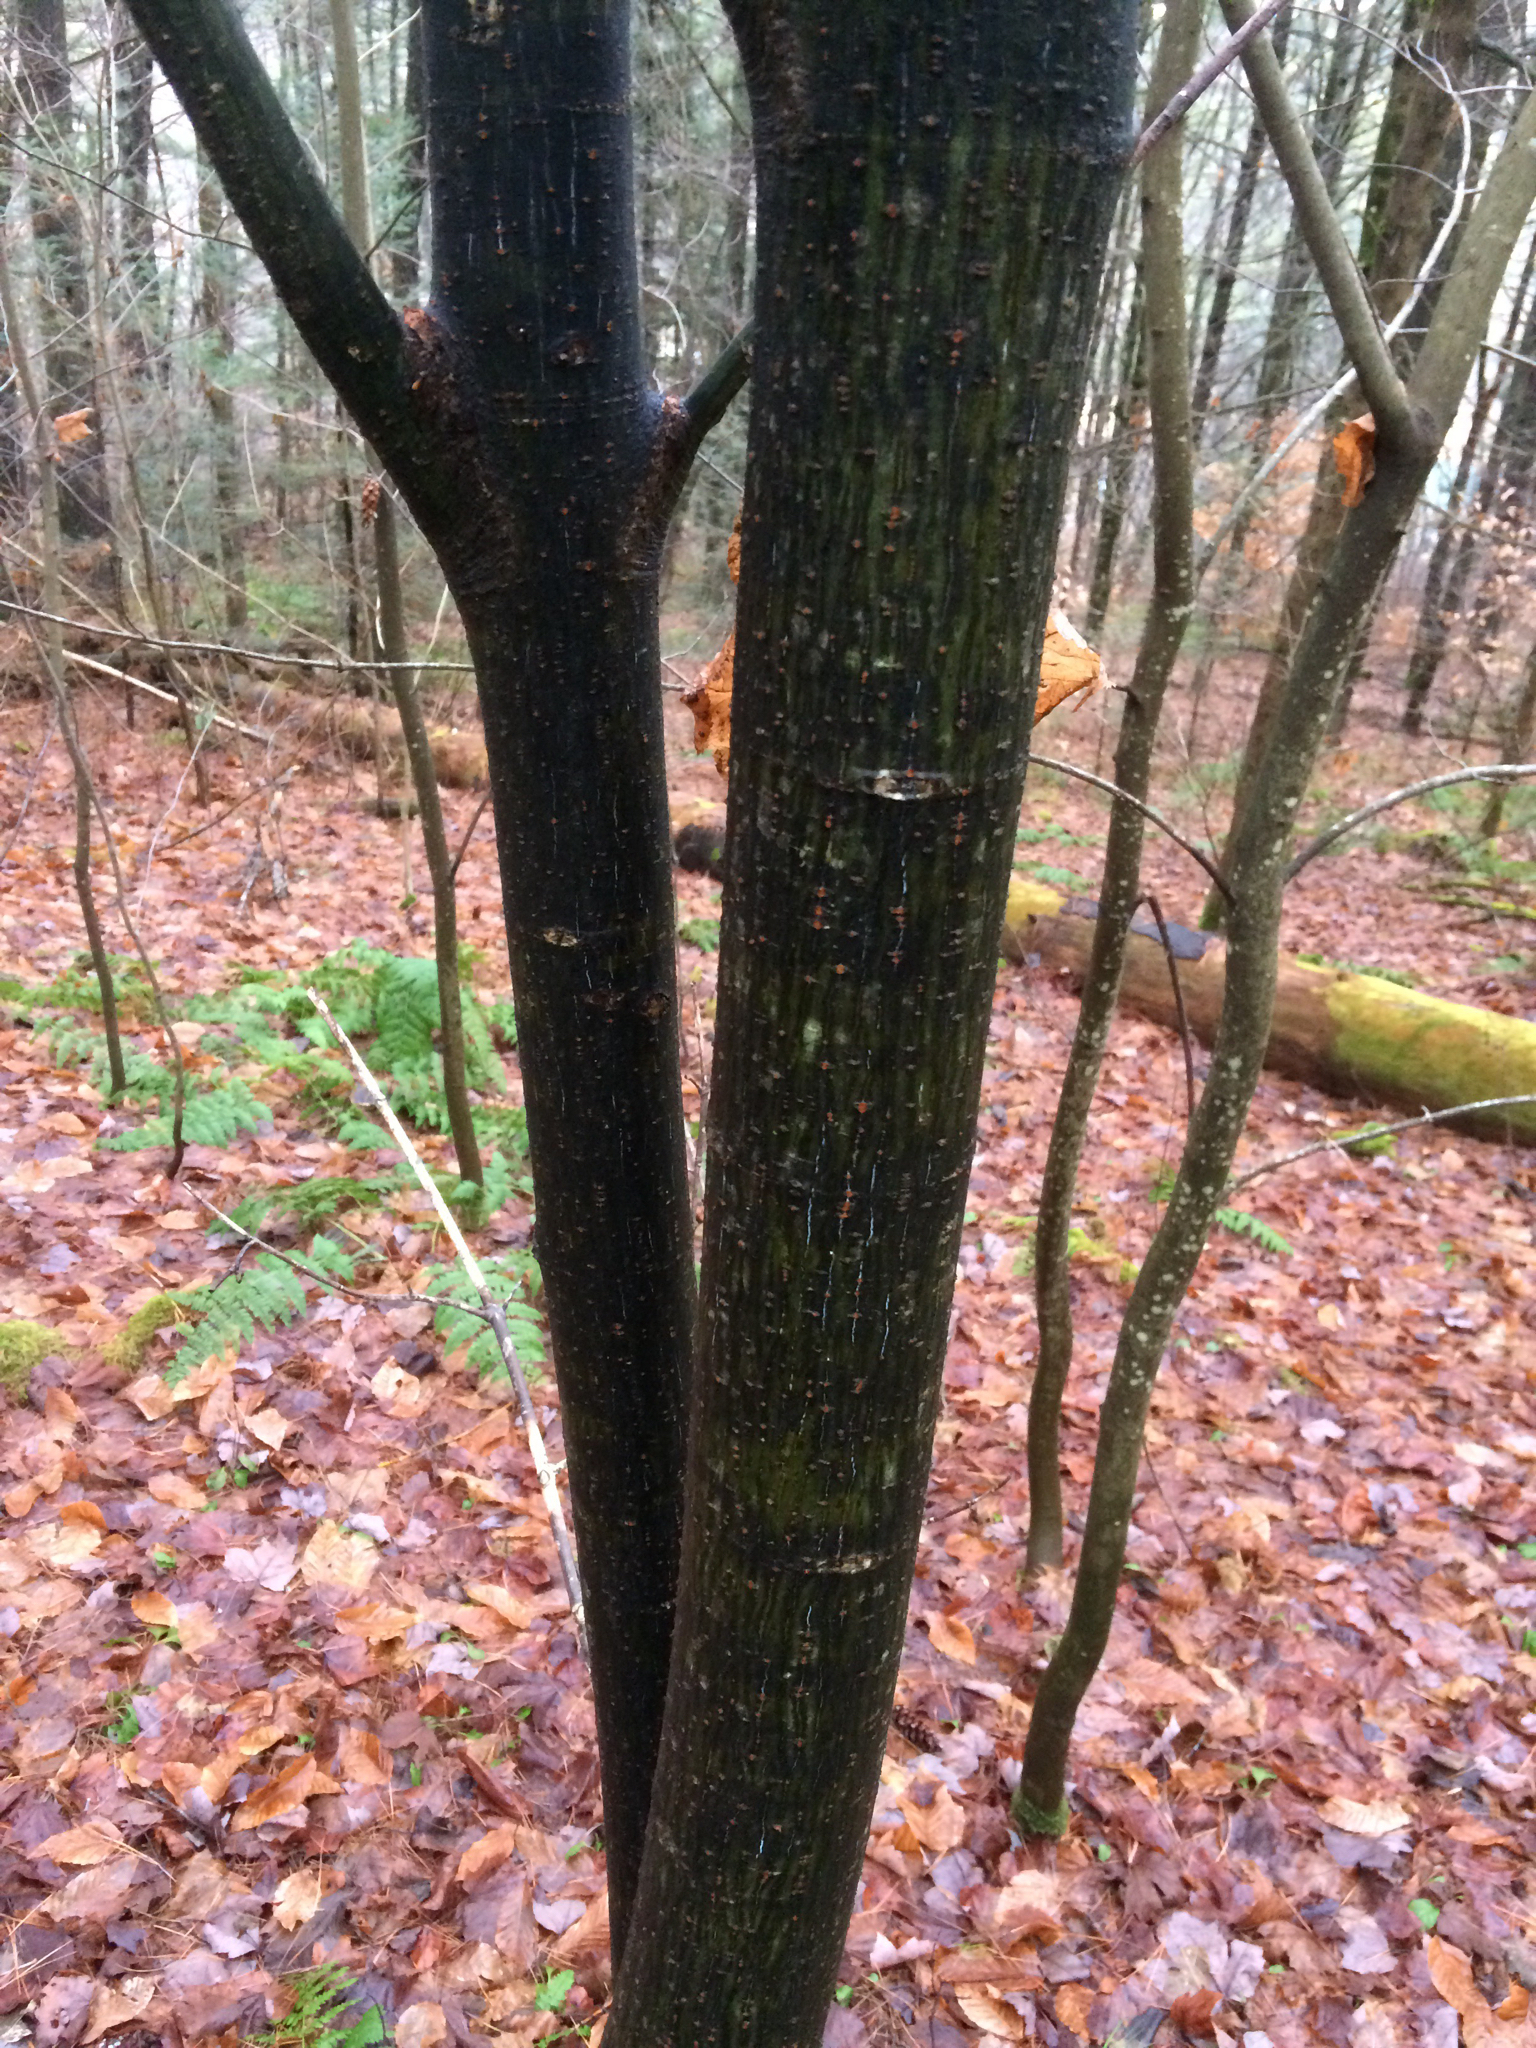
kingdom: Plantae
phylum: Tracheophyta
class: Magnoliopsida
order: Sapindales
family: Sapindaceae
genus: Acer
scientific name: Acer pensylvanicum
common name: Moosewood
